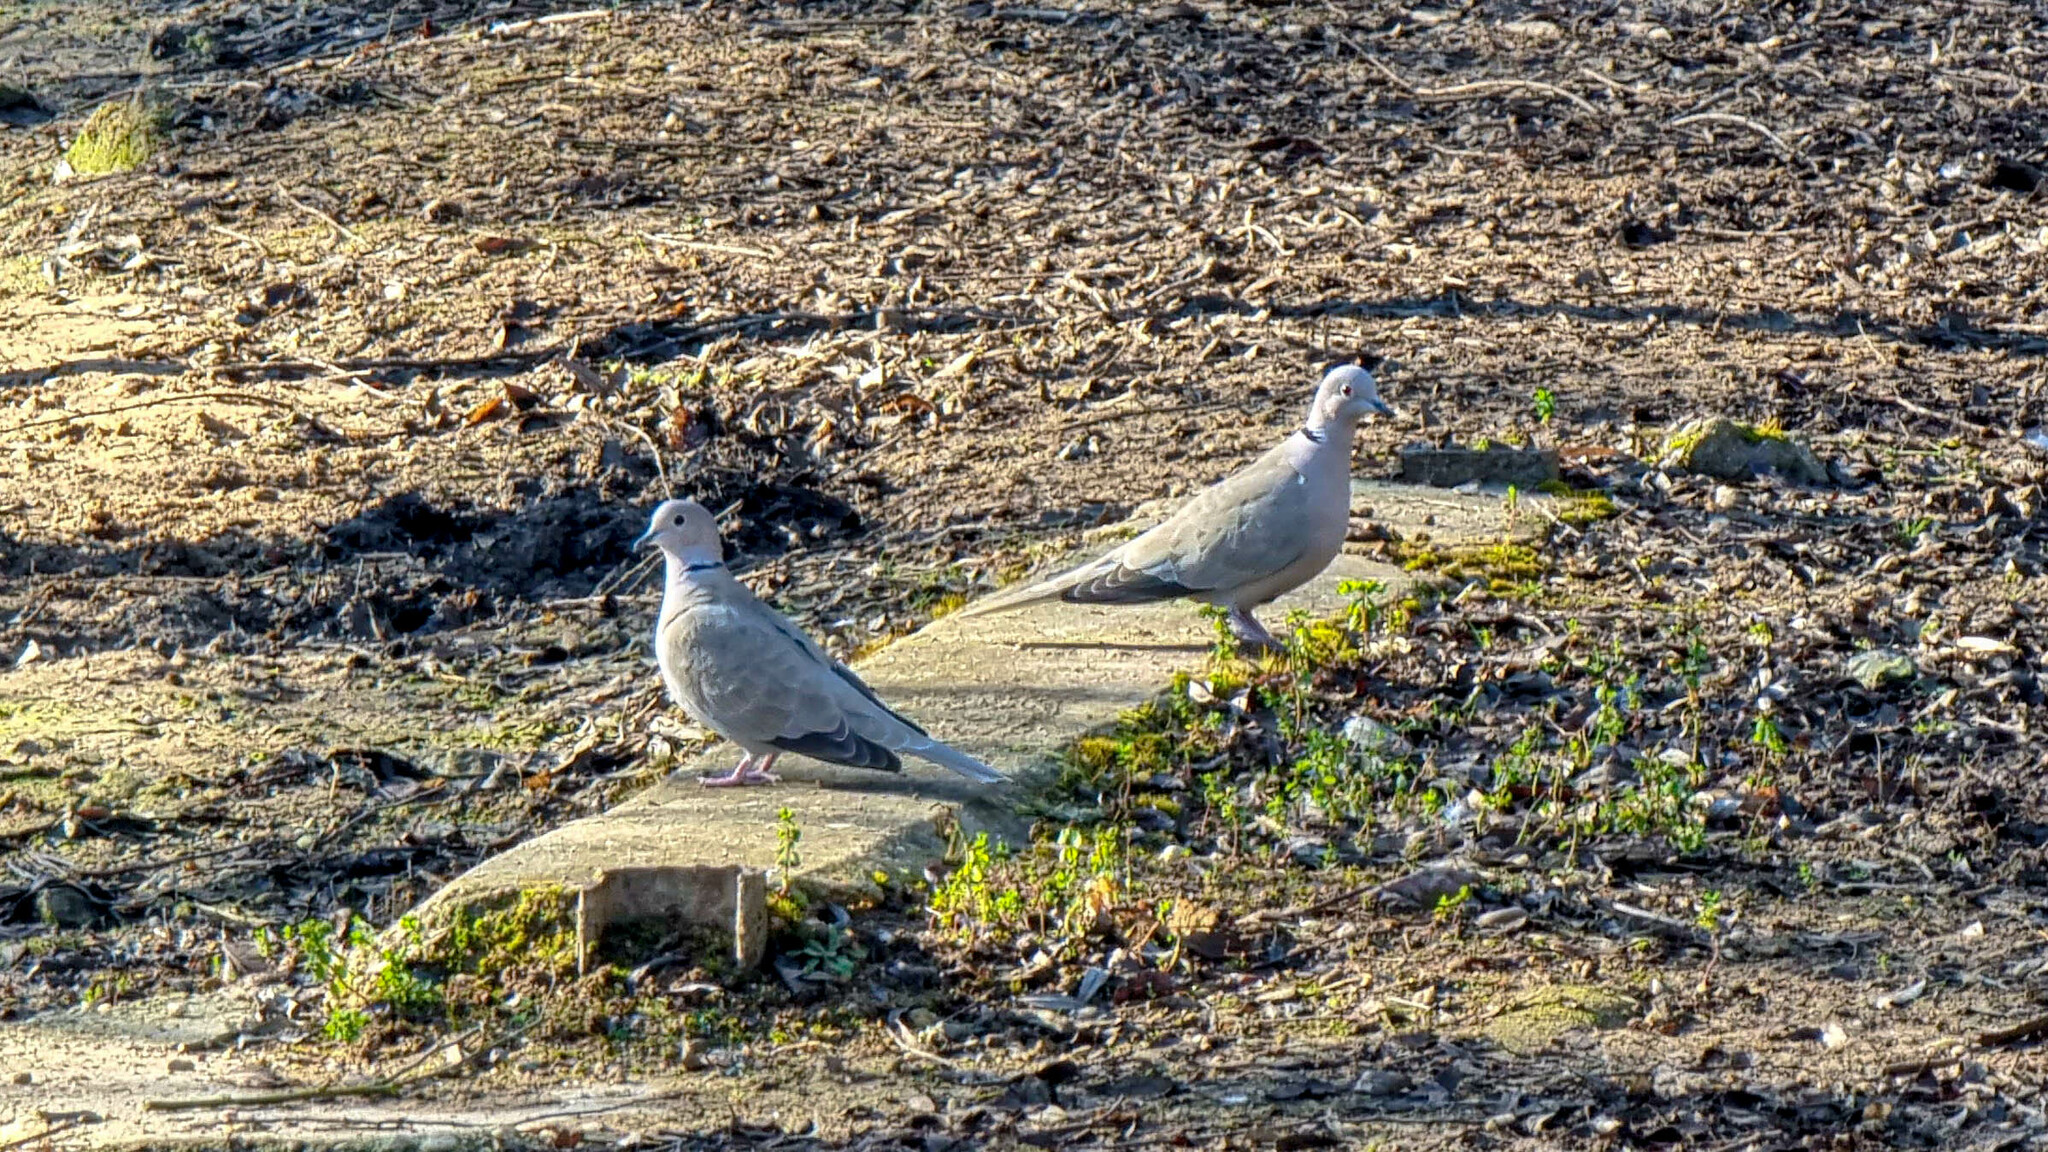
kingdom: Animalia
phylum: Chordata
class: Aves
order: Columbiformes
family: Columbidae
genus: Streptopelia
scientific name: Streptopelia decaocto
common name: Eurasian collared dove
